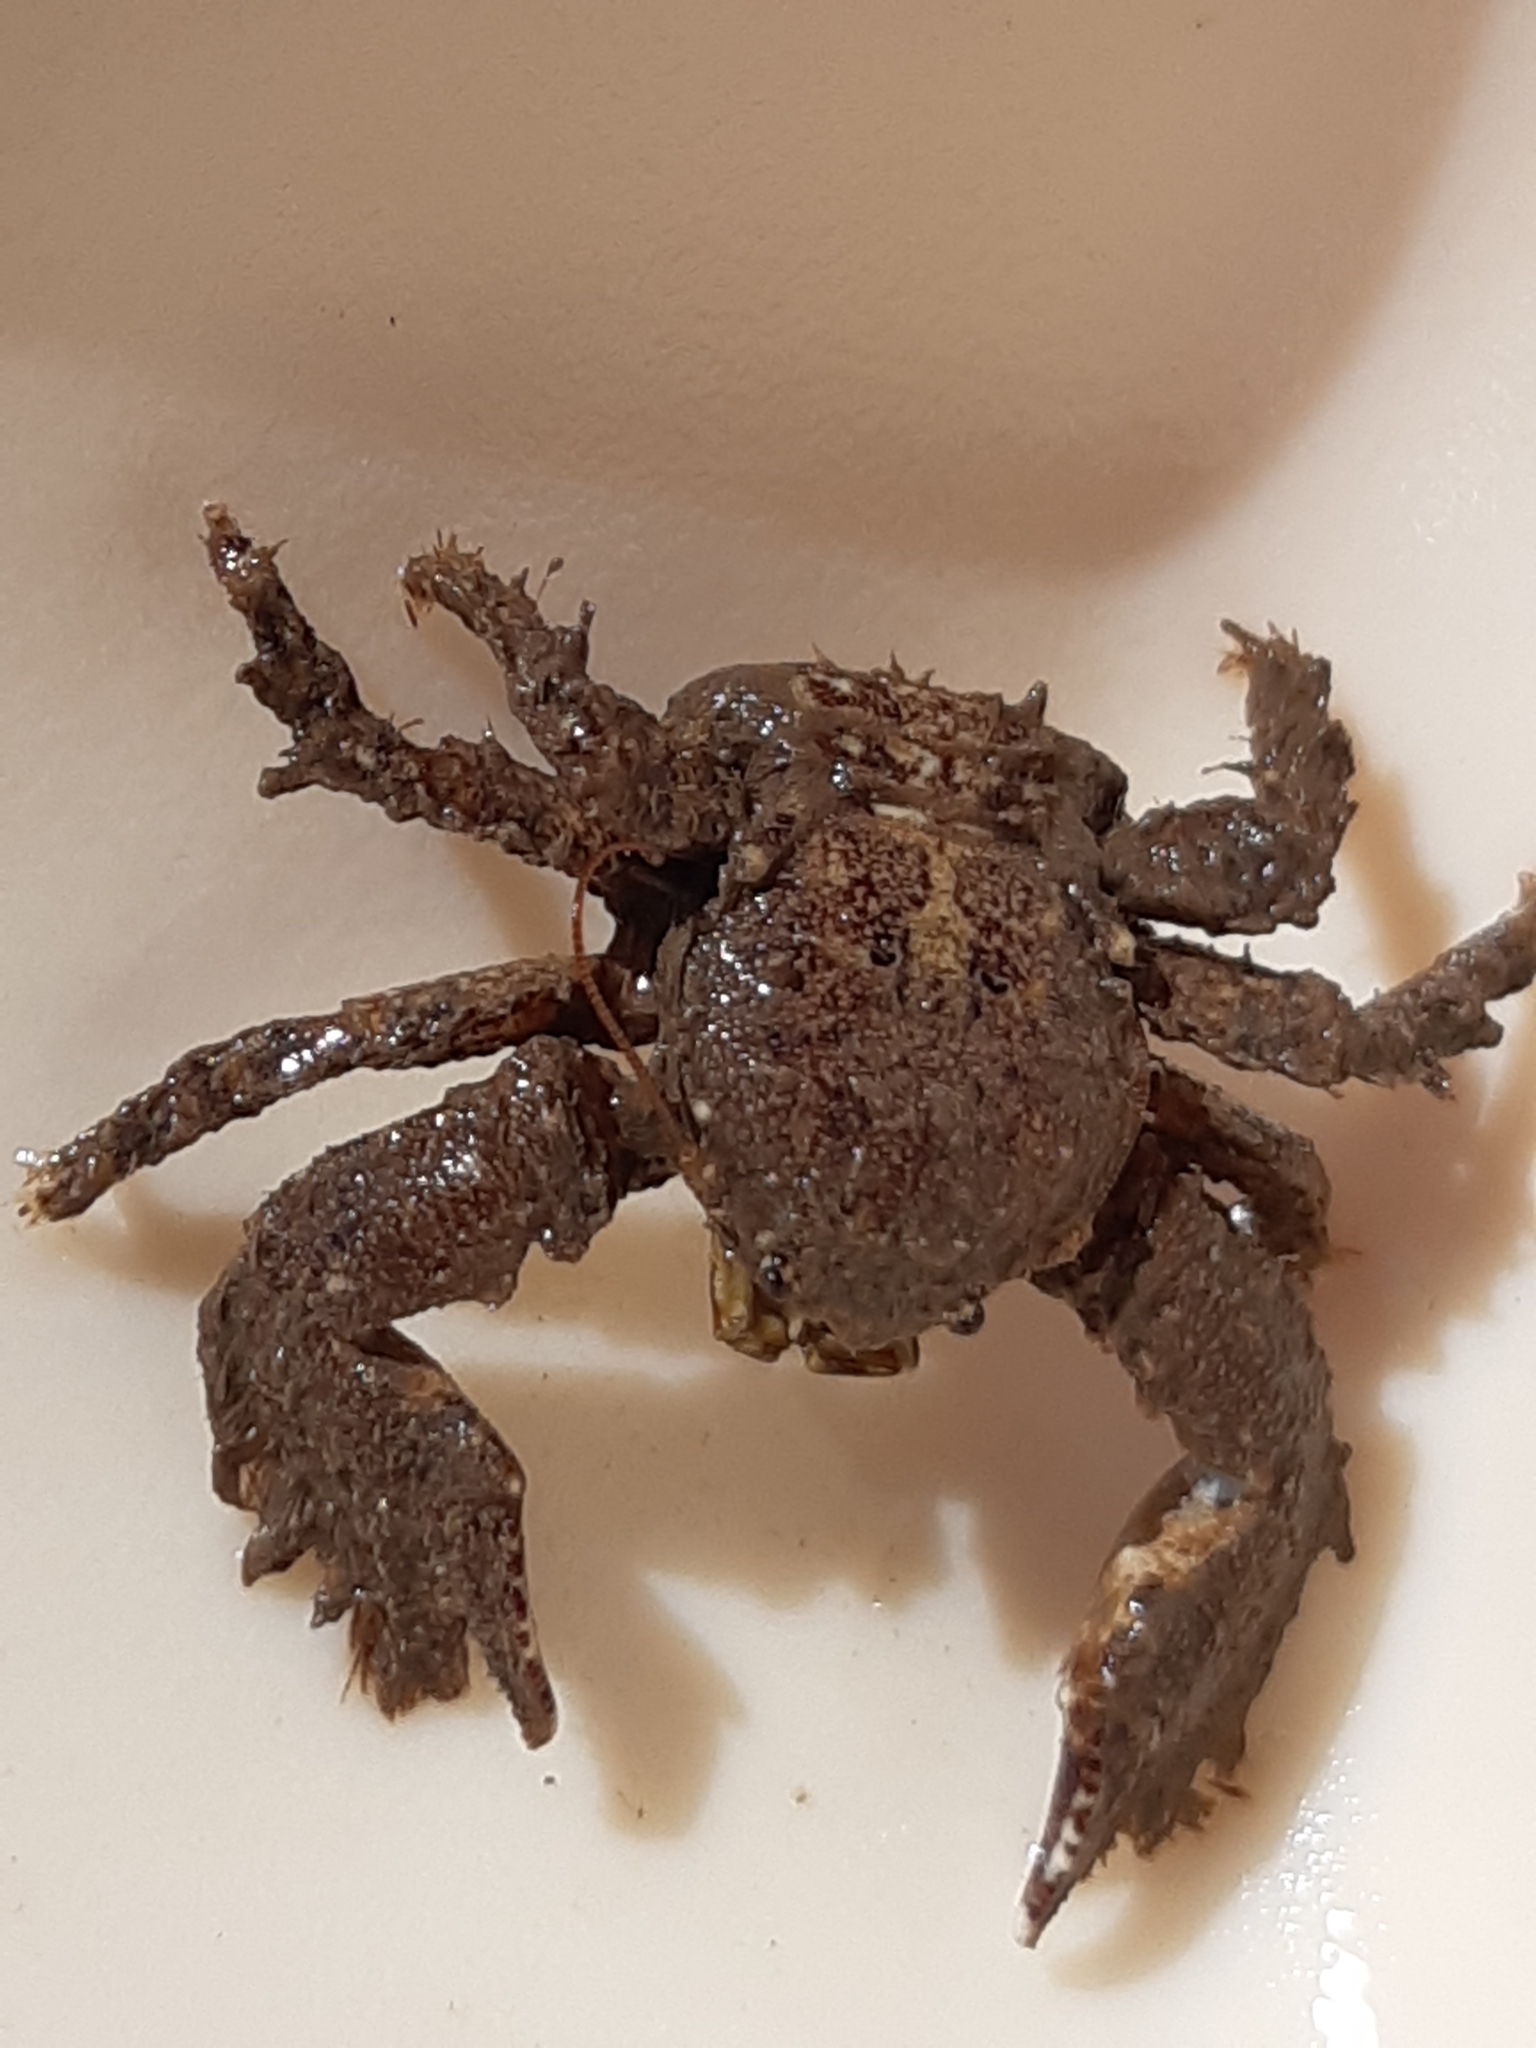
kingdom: Animalia
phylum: Arthropoda
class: Malacostraca
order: Decapoda
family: Porcellanidae
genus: Porcellana
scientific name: Porcellana platycheles
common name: Porcelain crab
